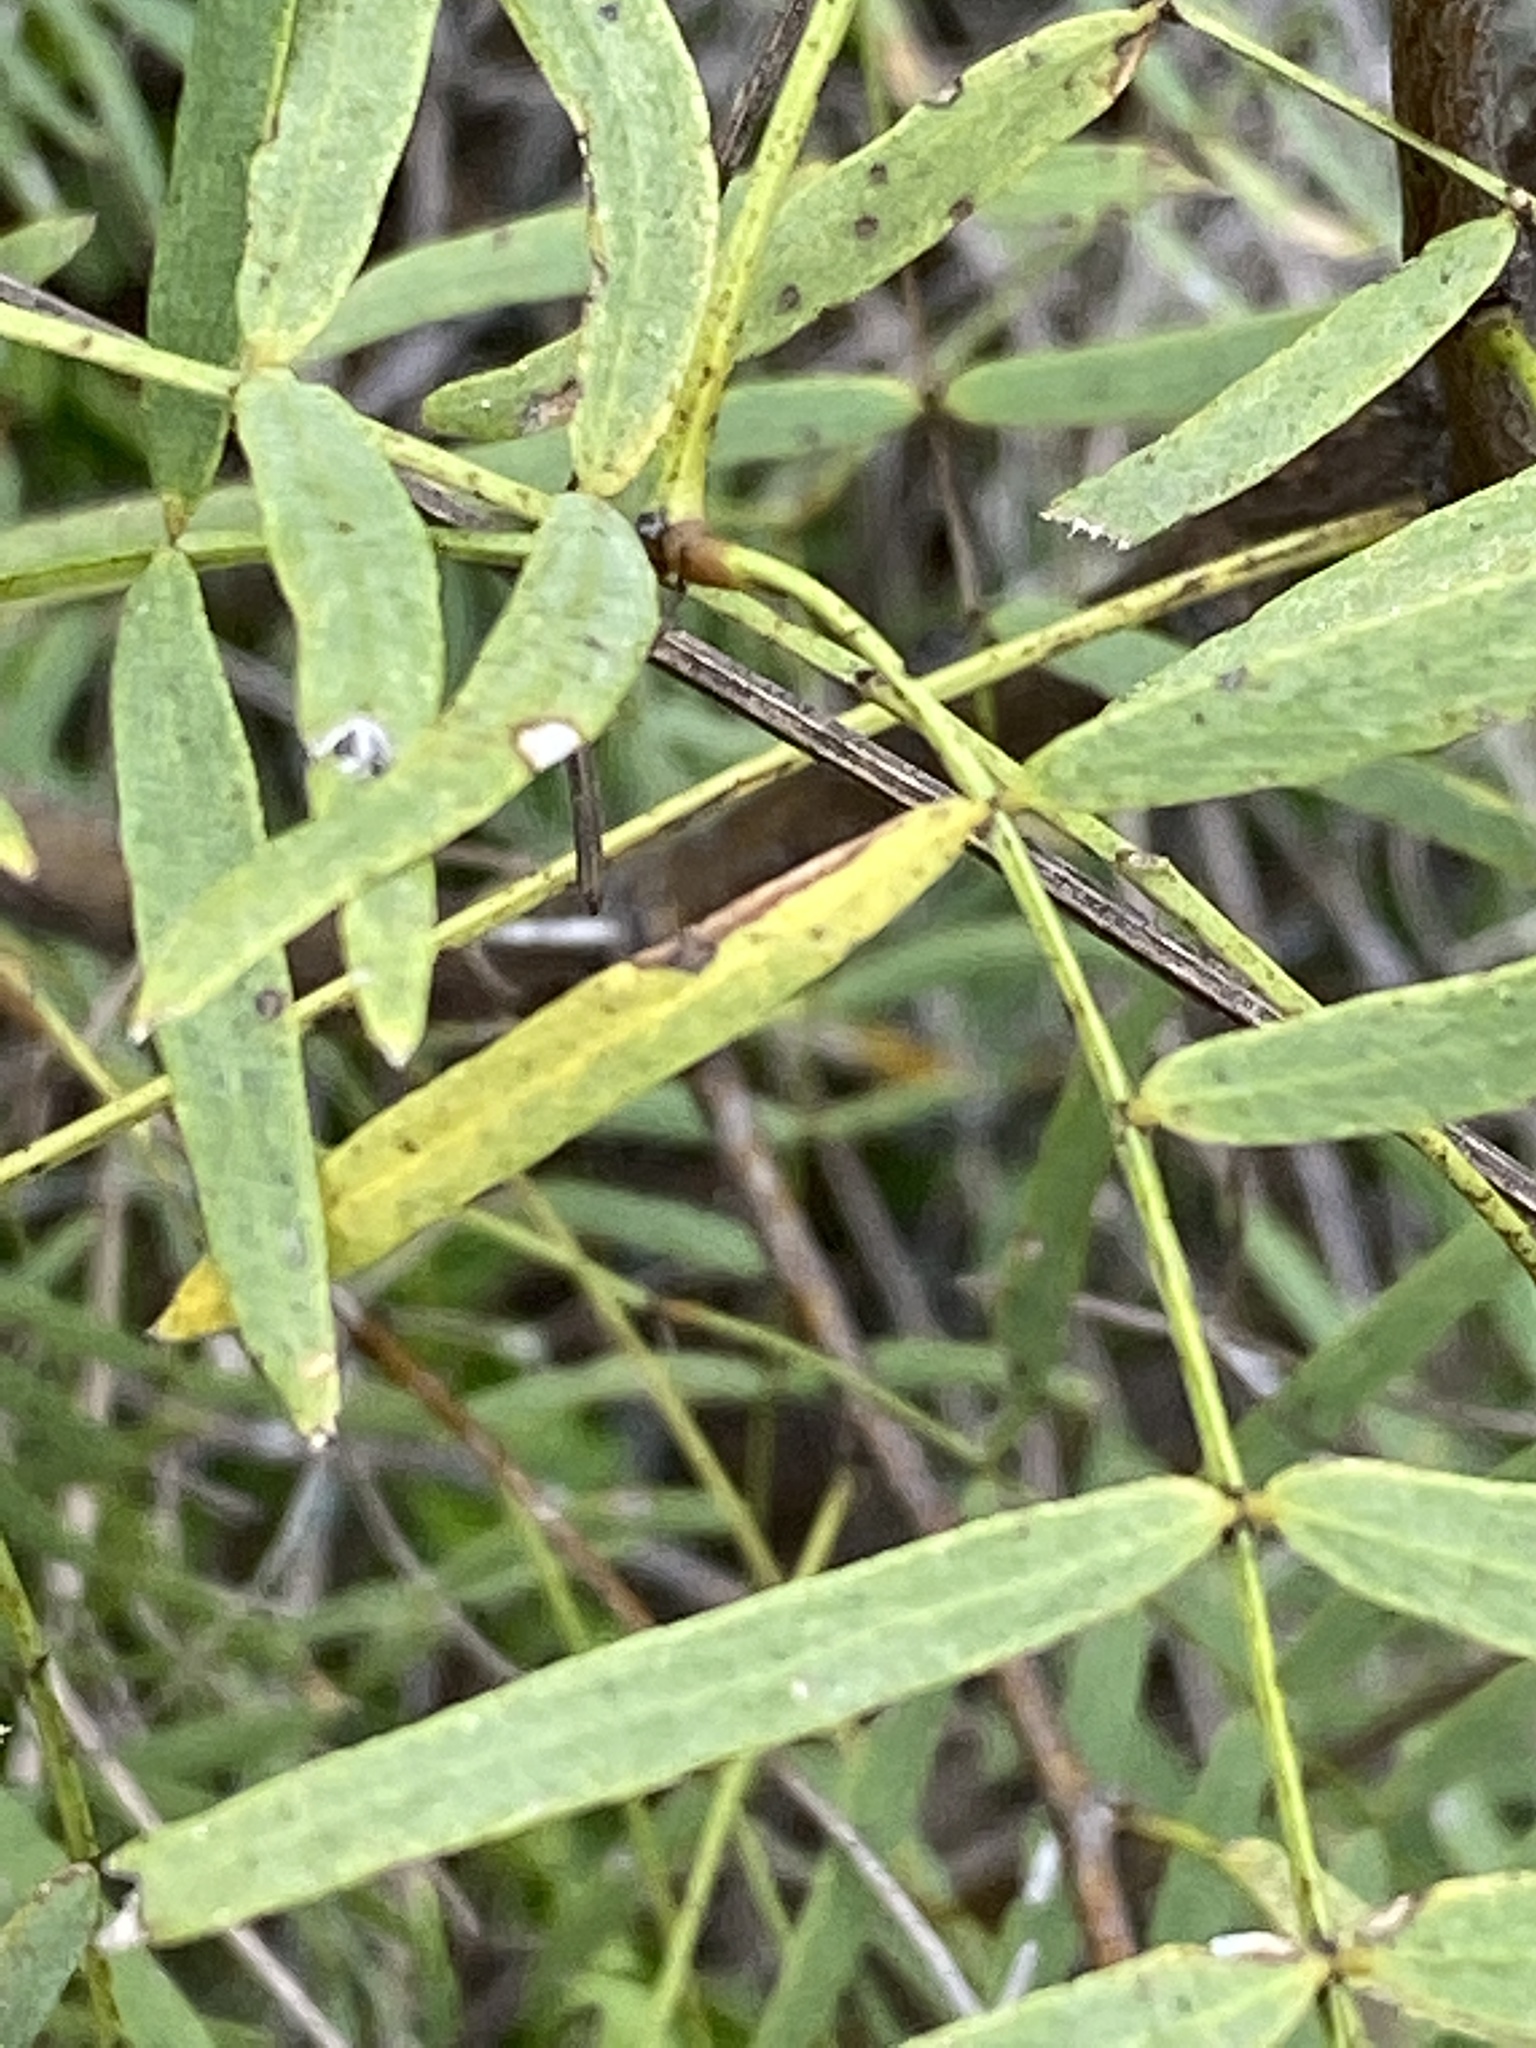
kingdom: Plantae
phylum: Tracheophyta
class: Magnoliopsida
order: Fabales
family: Fabaceae
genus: Prosopis
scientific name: Prosopis glandulosa
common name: Honey mesquite
